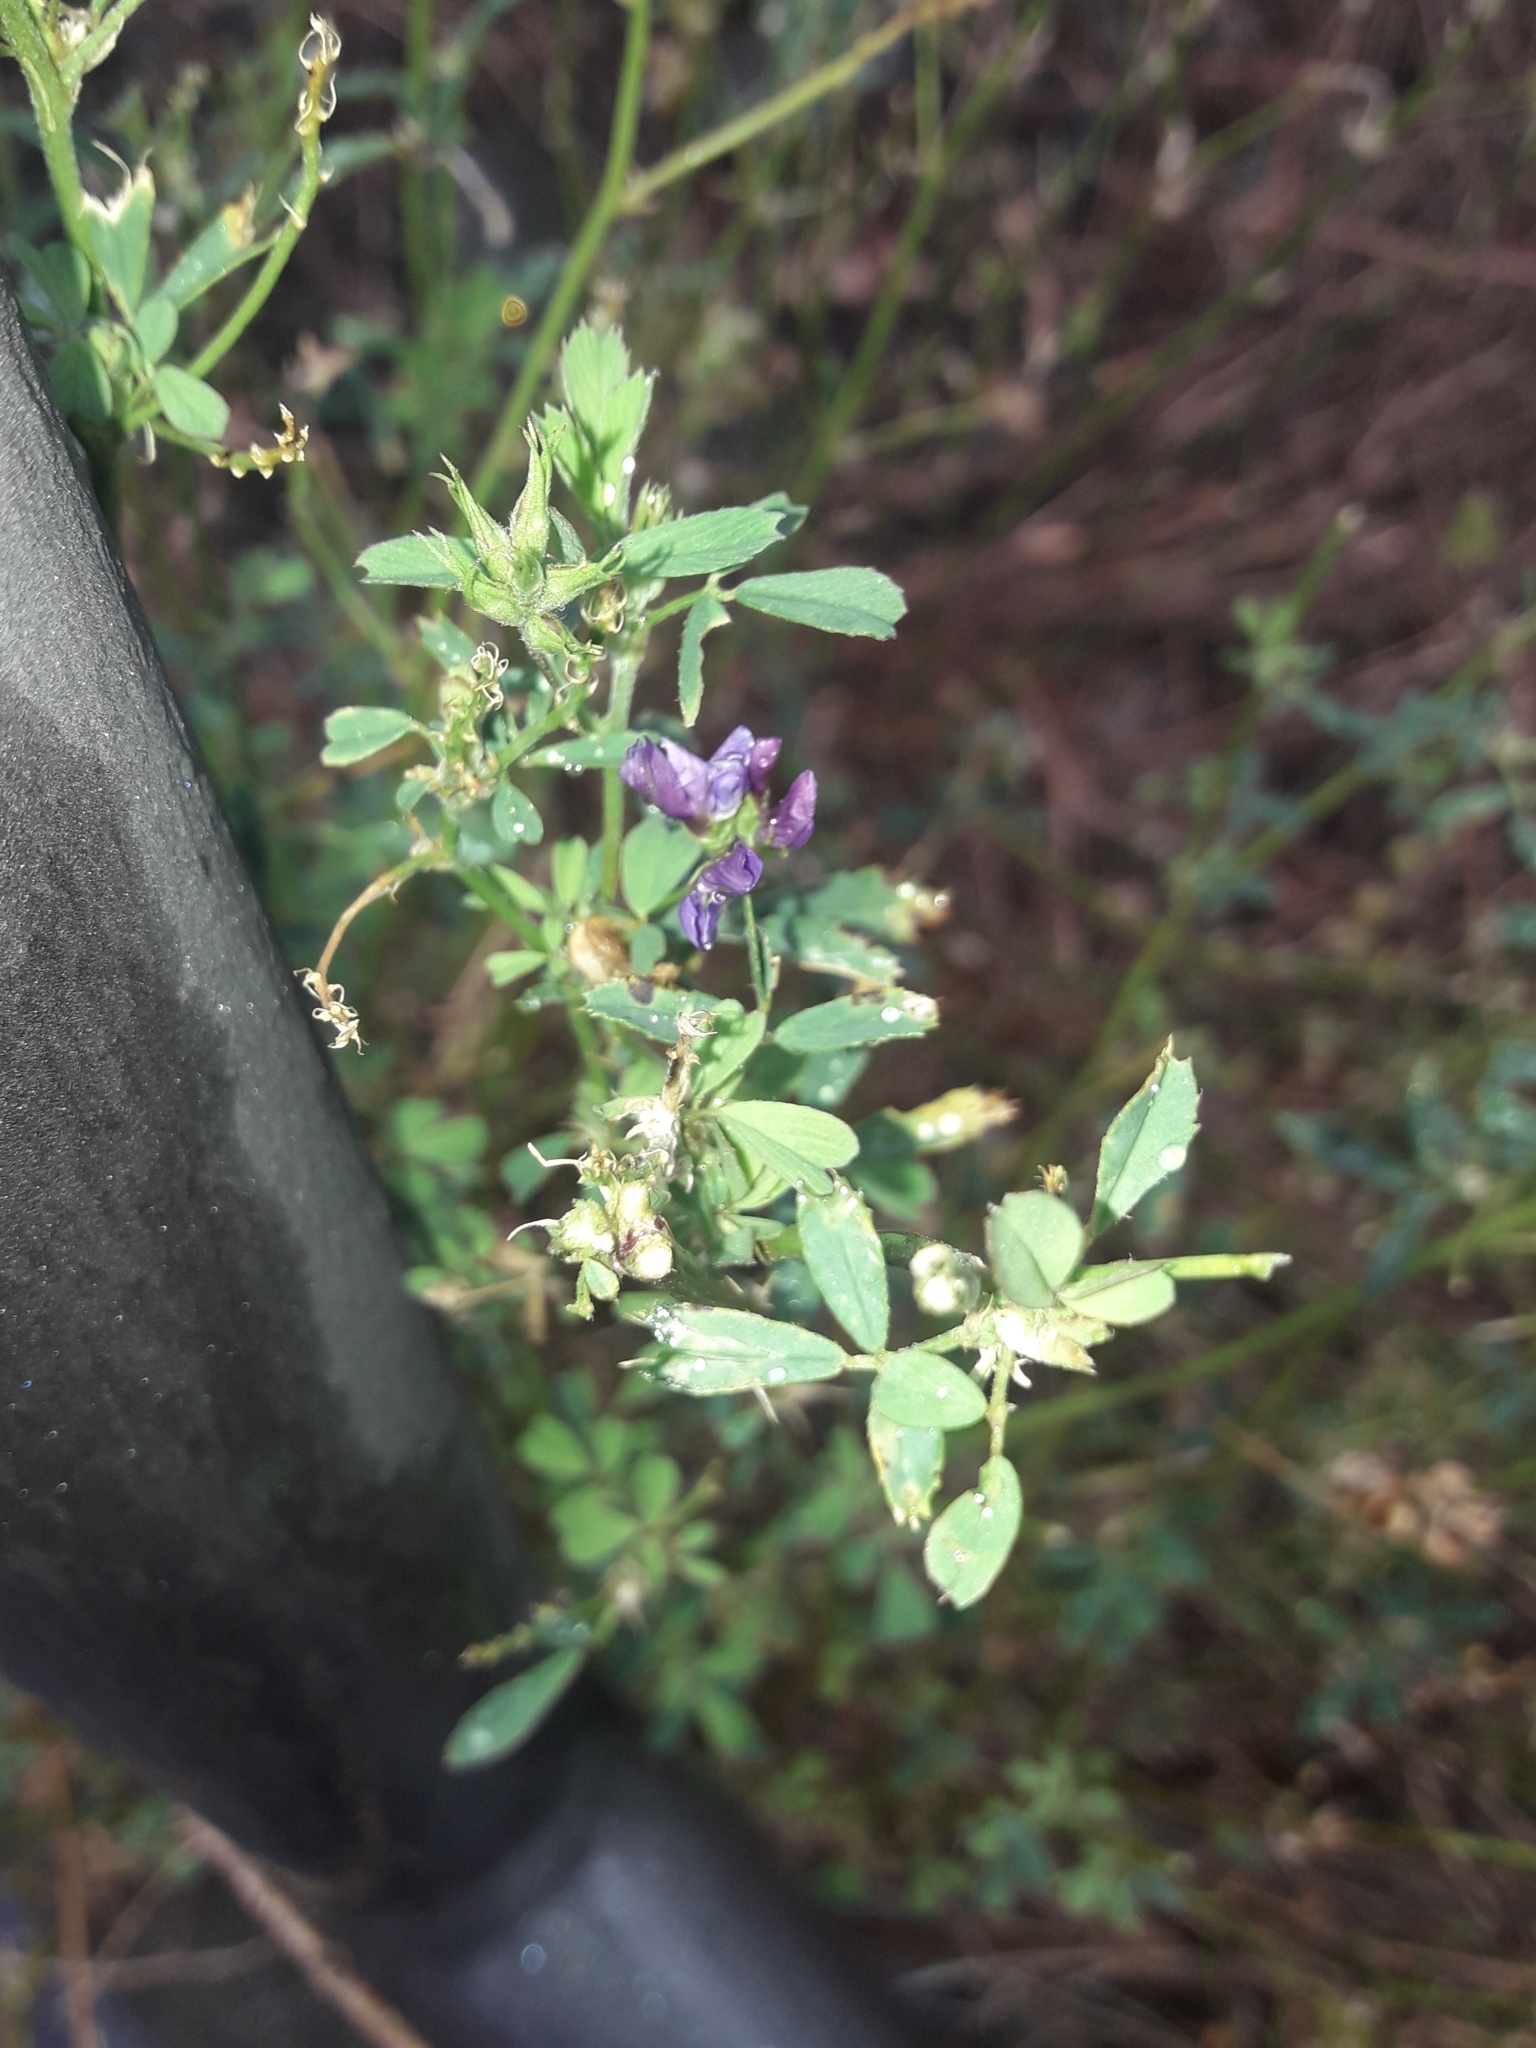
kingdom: Plantae
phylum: Tracheophyta
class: Magnoliopsida
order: Fabales
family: Fabaceae
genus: Medicago
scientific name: Medicago sativa
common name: Alfalfa
